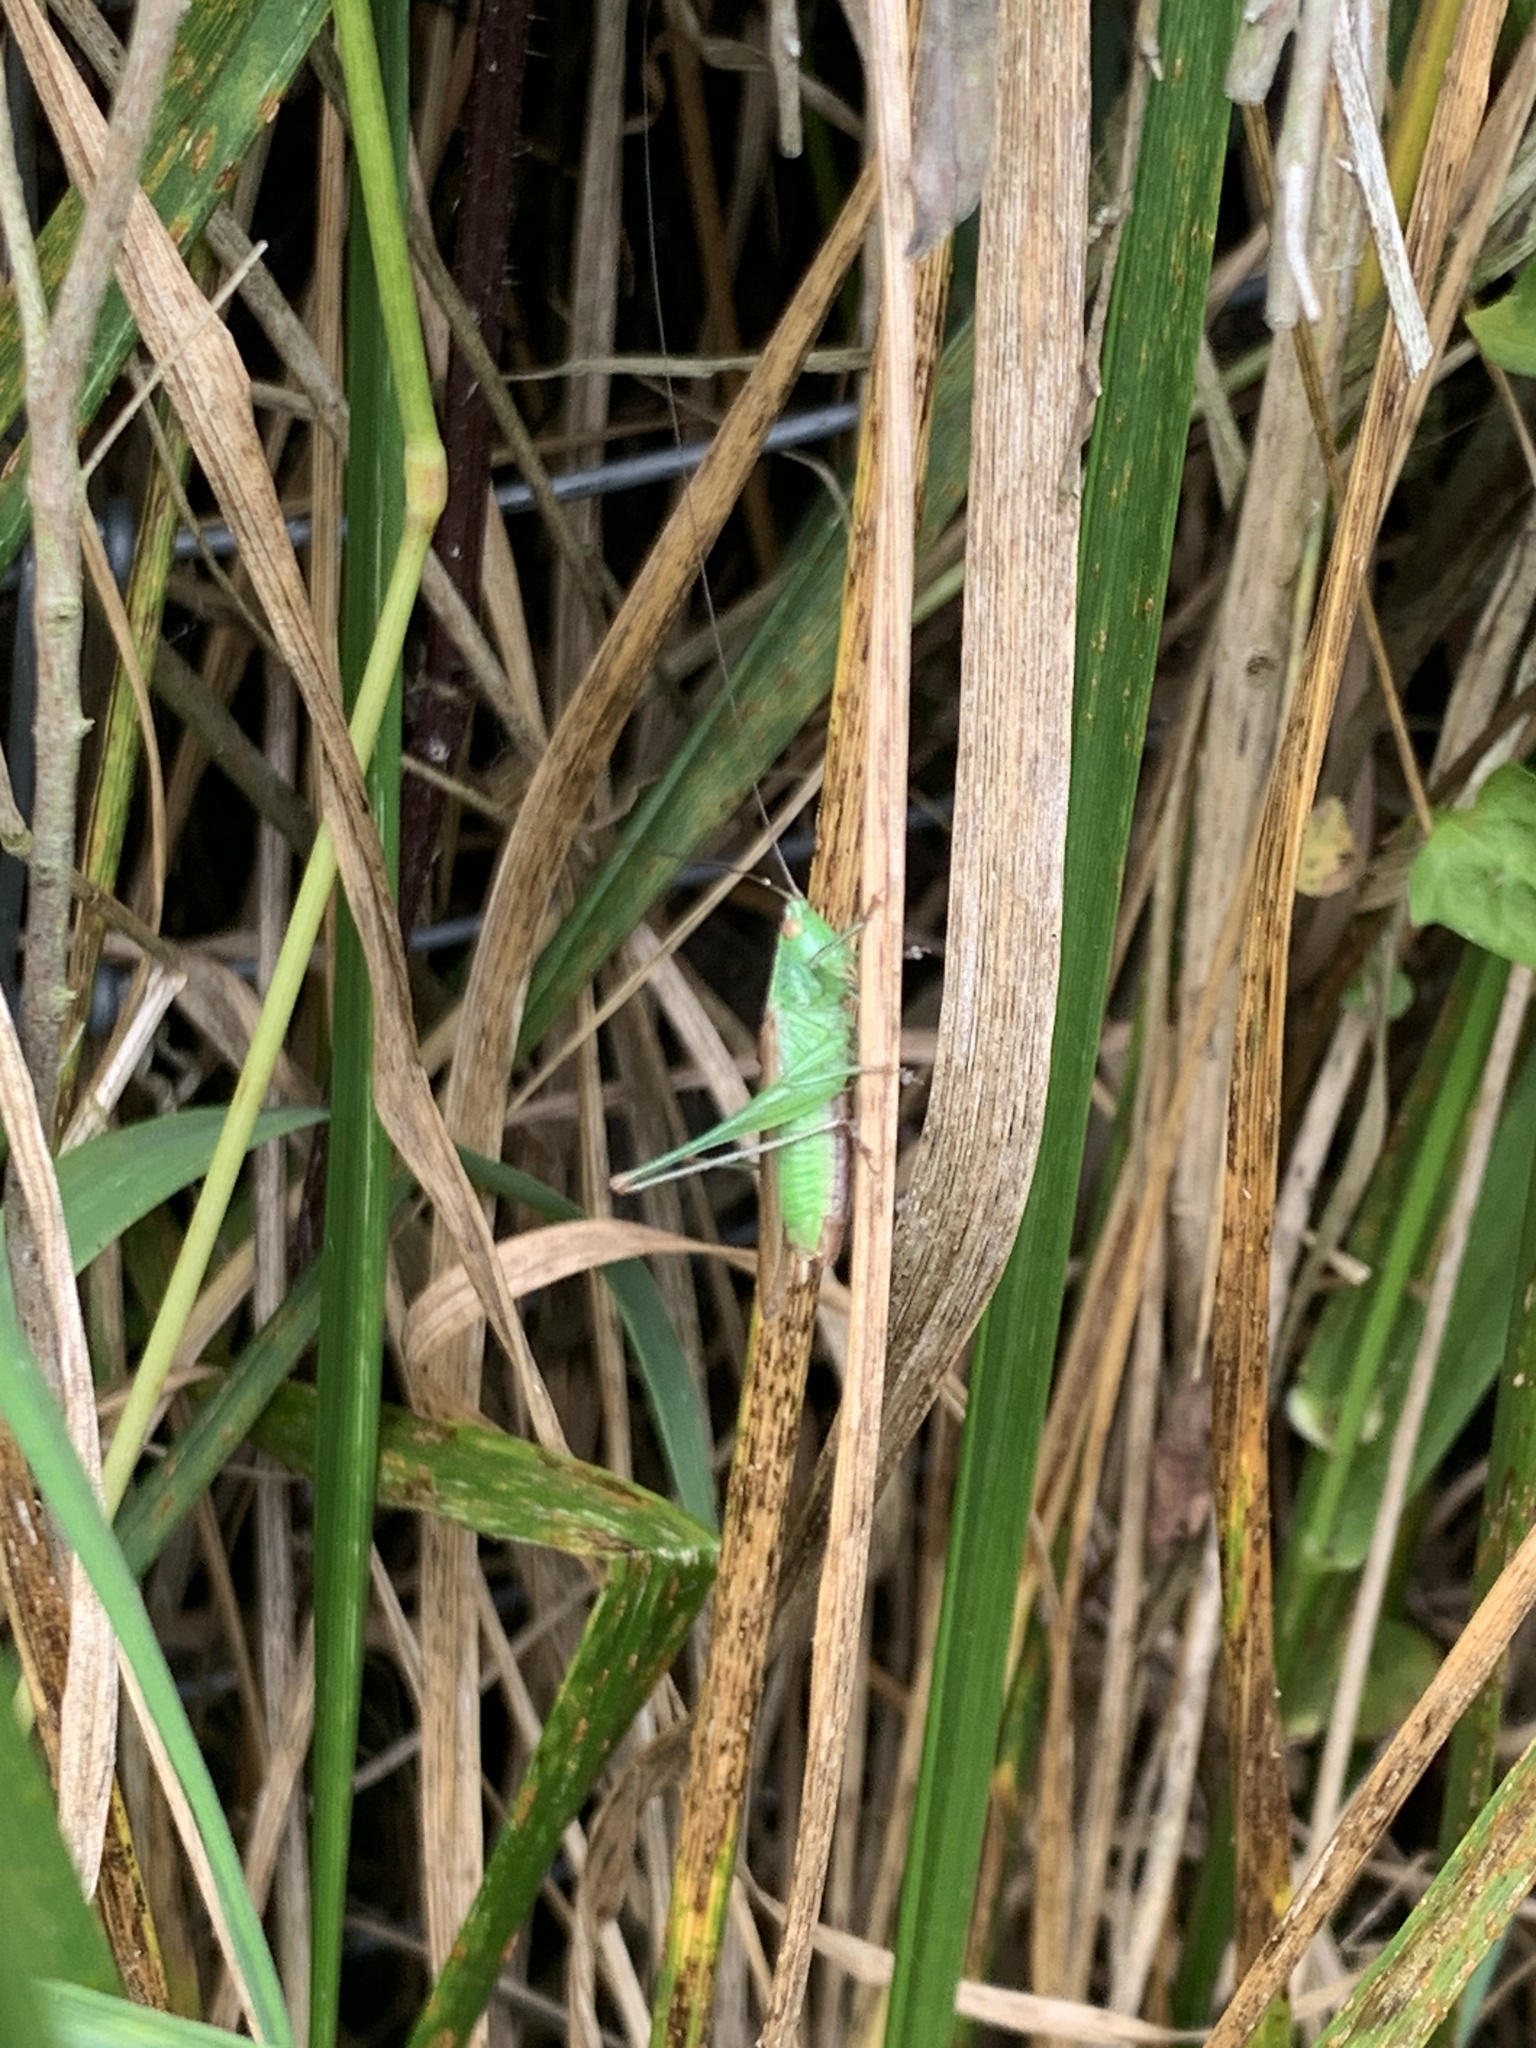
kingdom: Animalia
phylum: Arthropoda
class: Insecta
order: Orthoptera
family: Tettigoniidae
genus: Conocephalus
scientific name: Conocephalus fuscus
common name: Long-winged conehead
